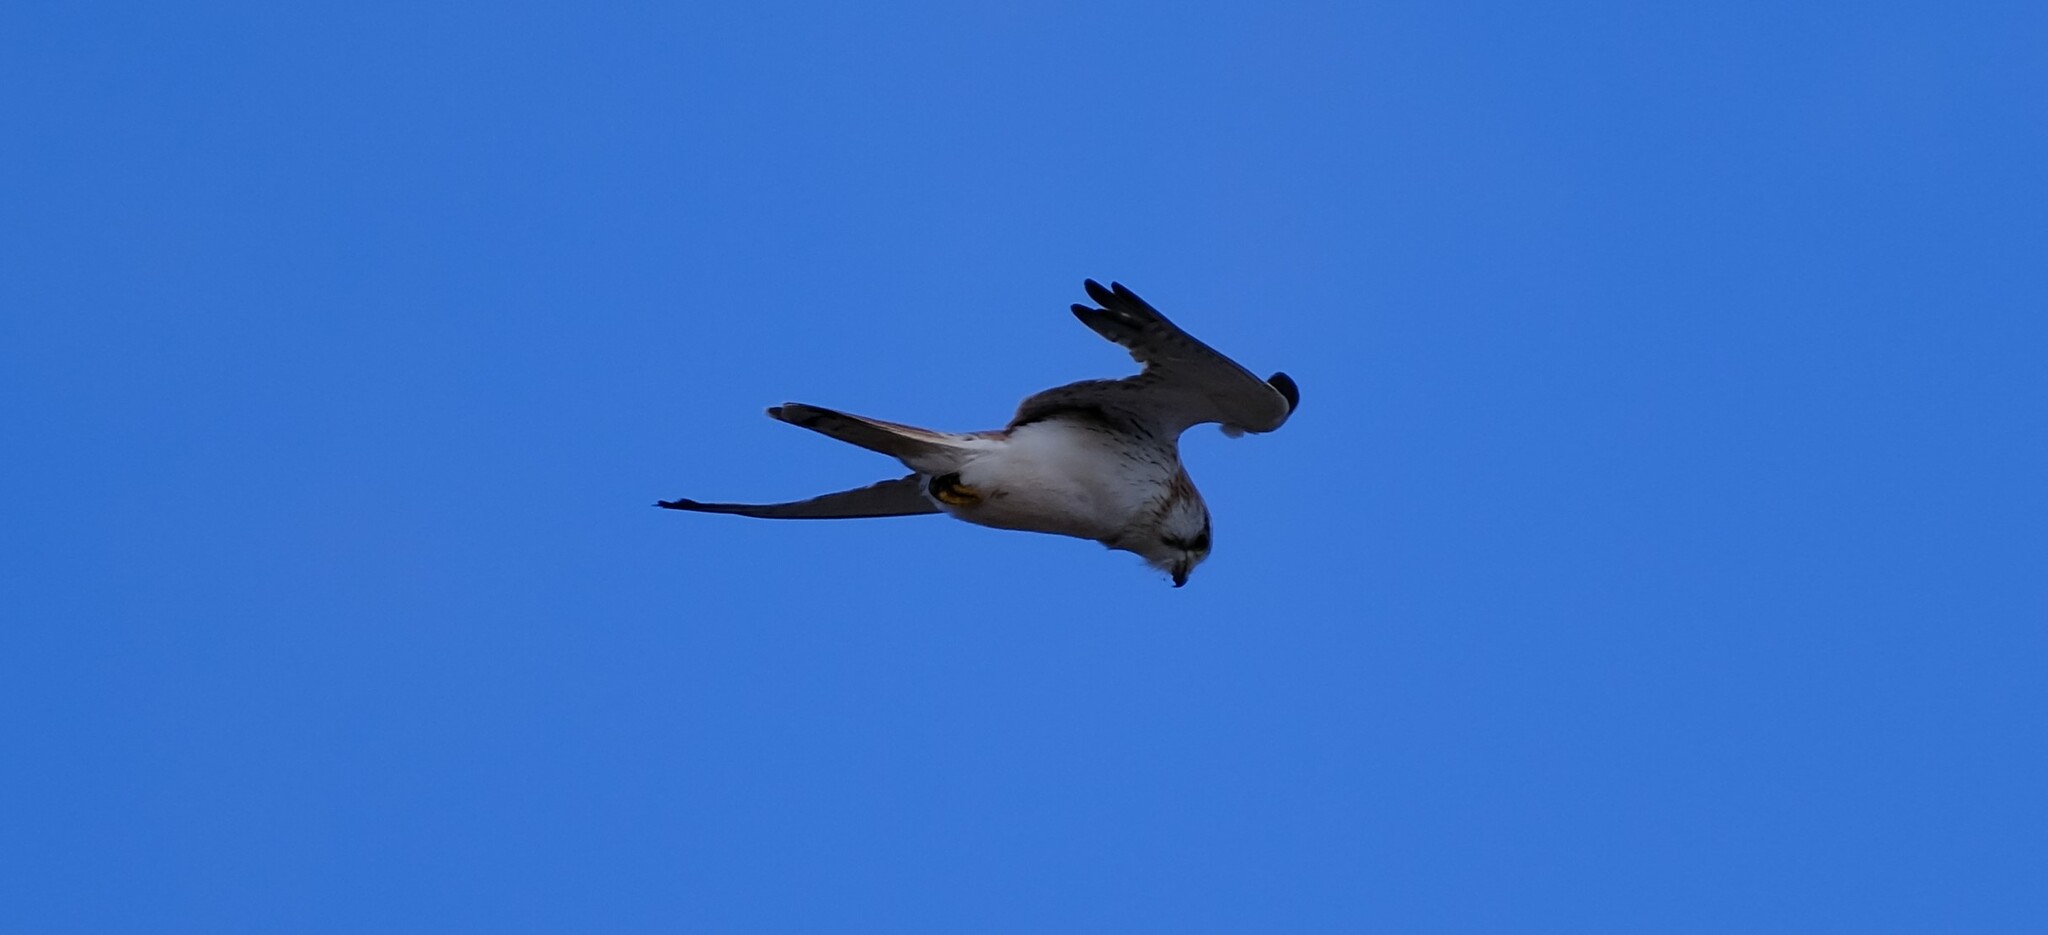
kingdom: Animalia
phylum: Chordata
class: Aves
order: Falconiformes
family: Falconidae
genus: Falco
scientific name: Falco cenchroides
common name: Nankeen kestrel
